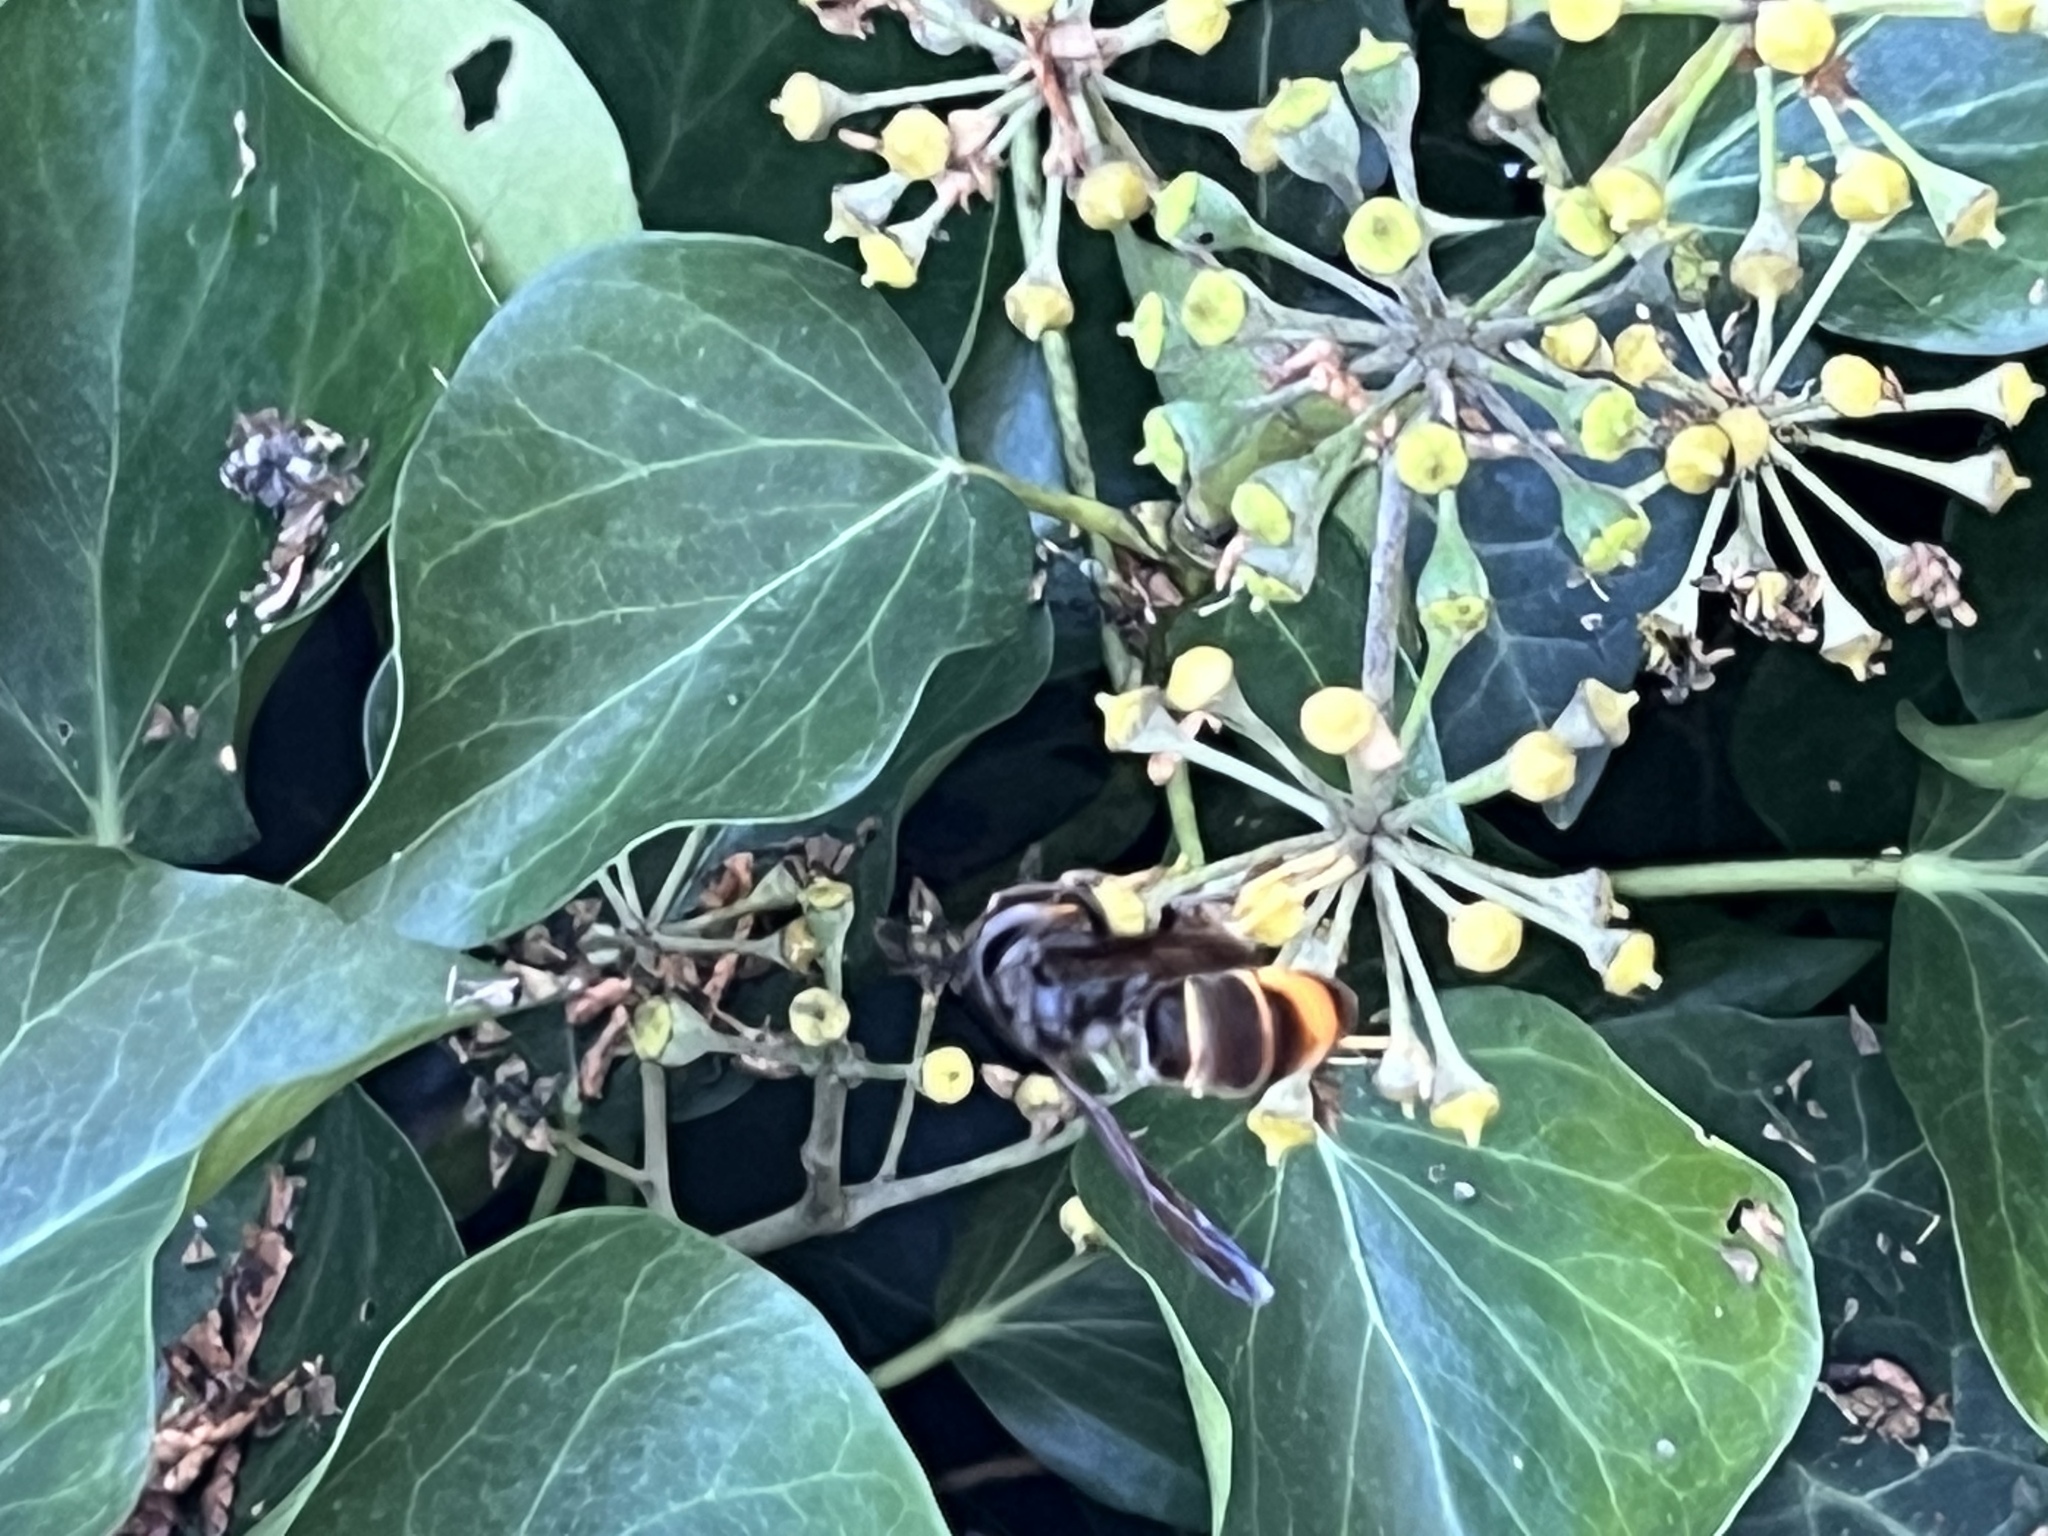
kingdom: Animalia
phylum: Arthropoda
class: Insecta
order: Hymenoptera
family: Vespidae
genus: Vespa
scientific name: Vespa velutina
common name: Asian hornet
